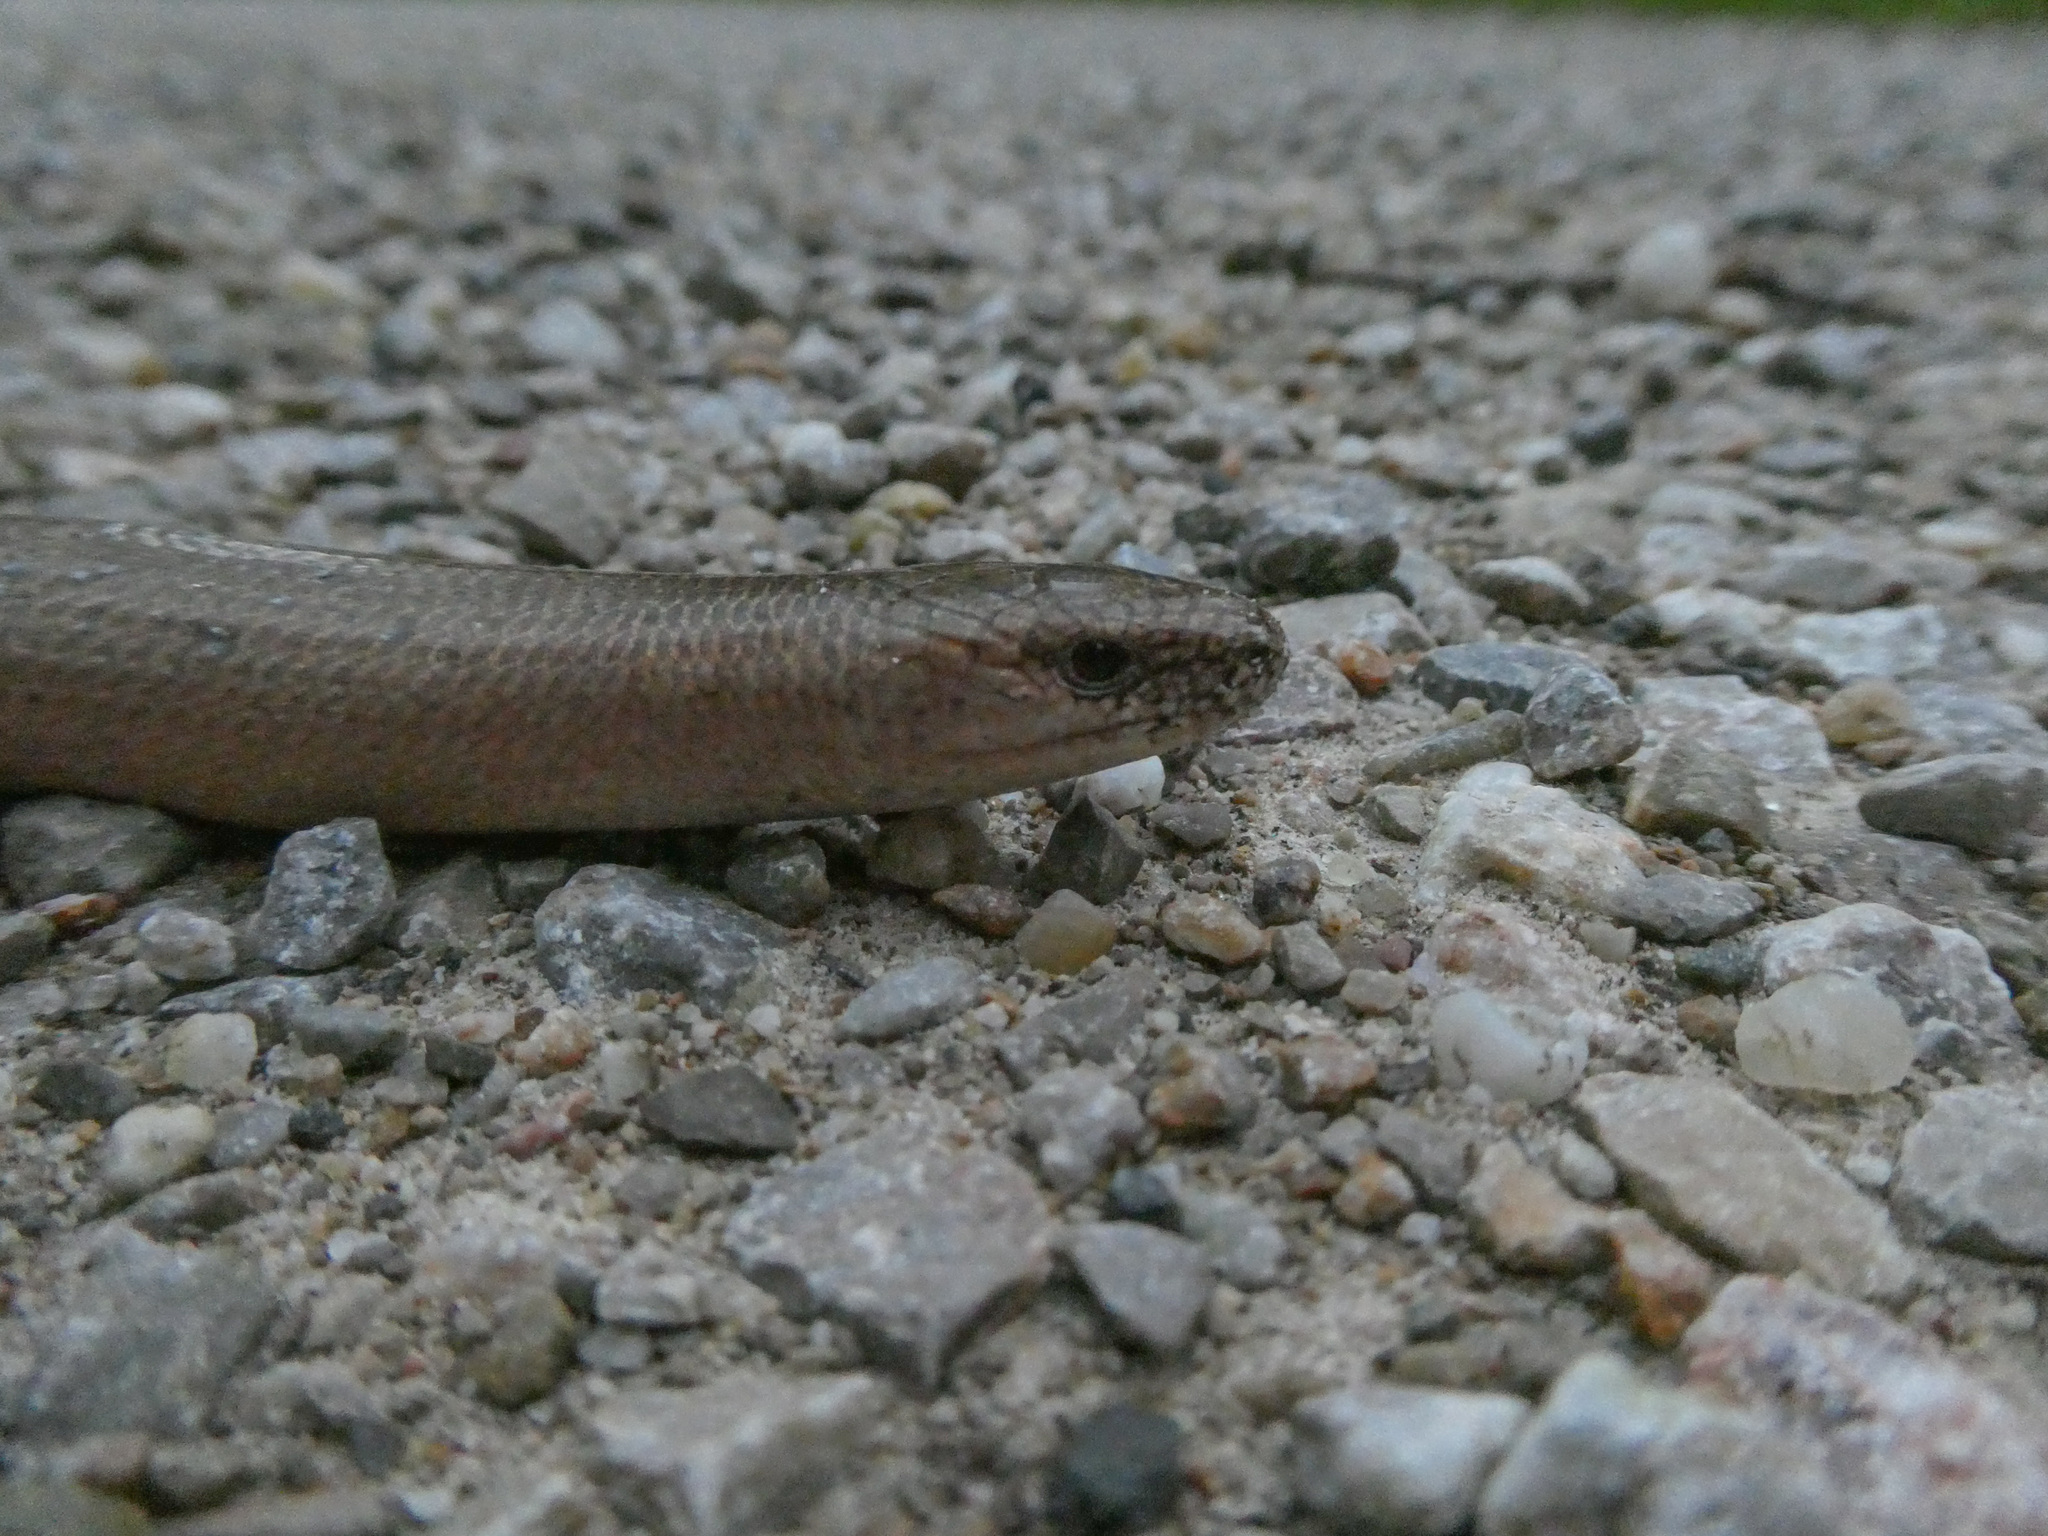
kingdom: Animalia
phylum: Chordata
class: Squamata
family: Anguidae
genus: Anguis
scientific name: Anguis fragilis
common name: Slow worm
